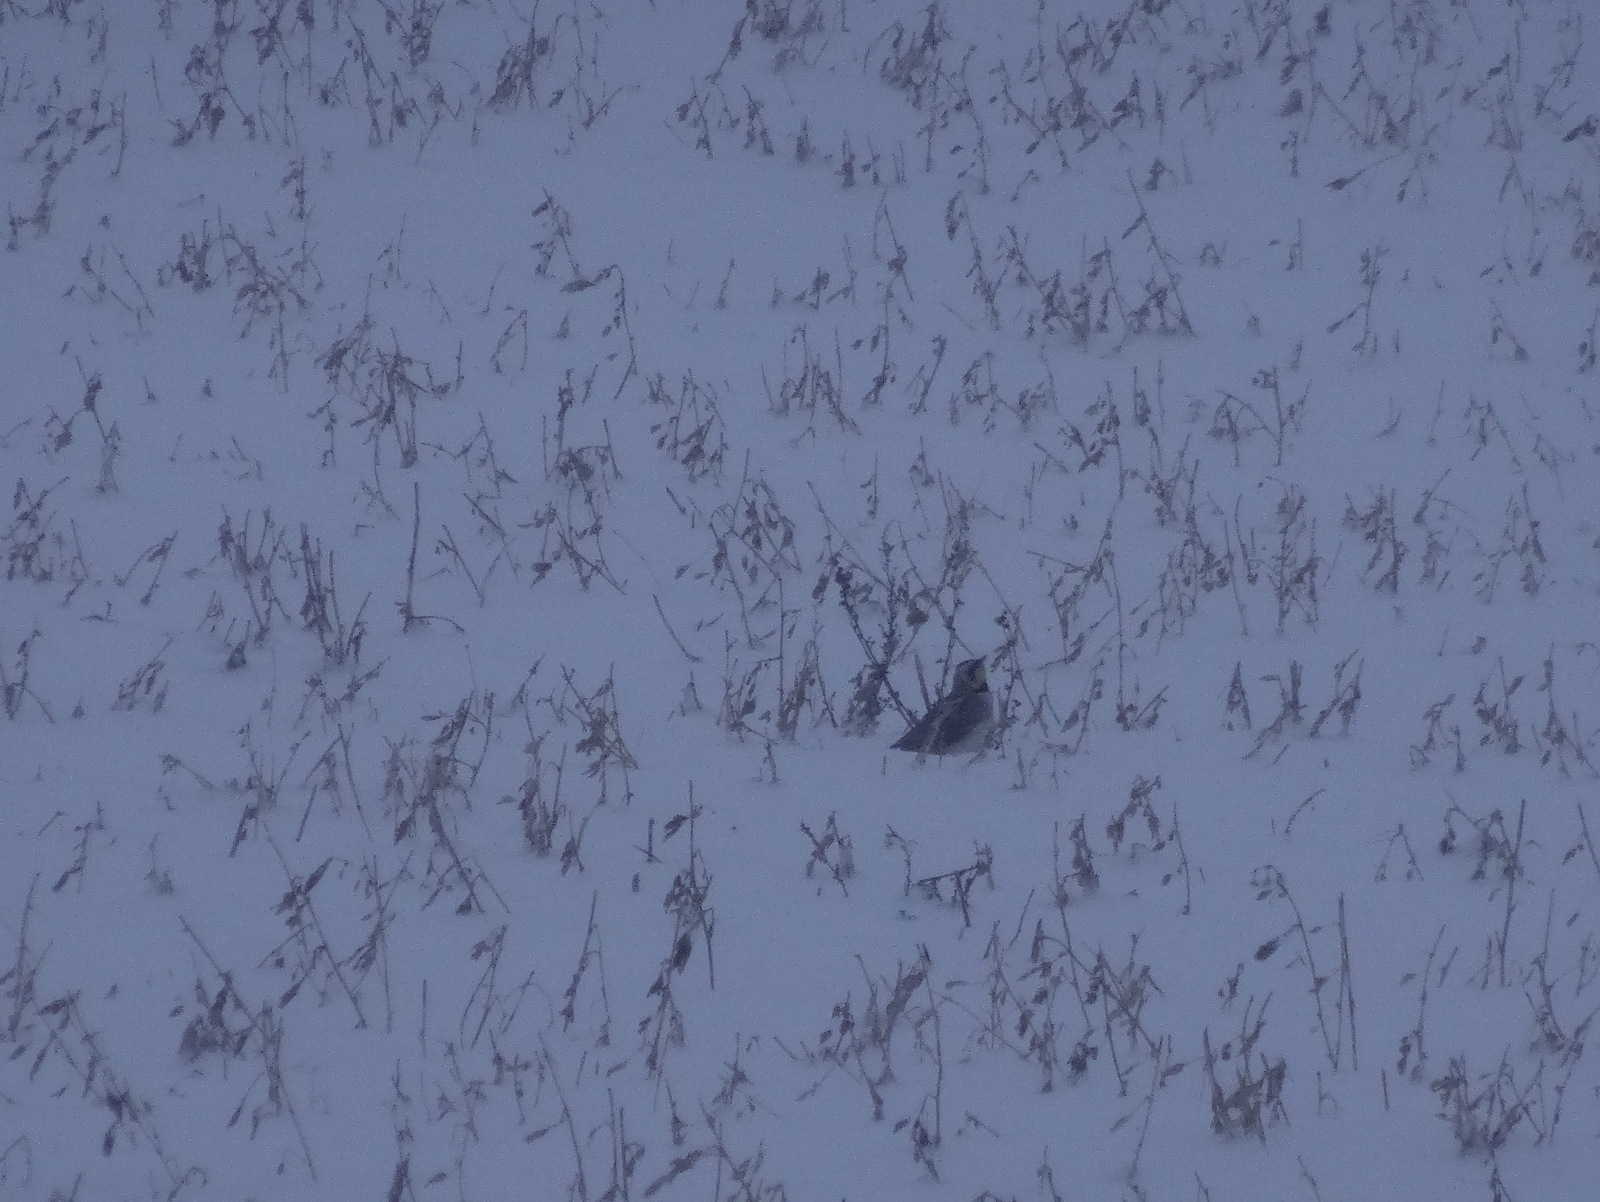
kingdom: Animalia
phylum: Chordata
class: Aves
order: Passeriformes
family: Alaudidae
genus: Eremophila
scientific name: Eremophila alpestris
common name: Horned lark
